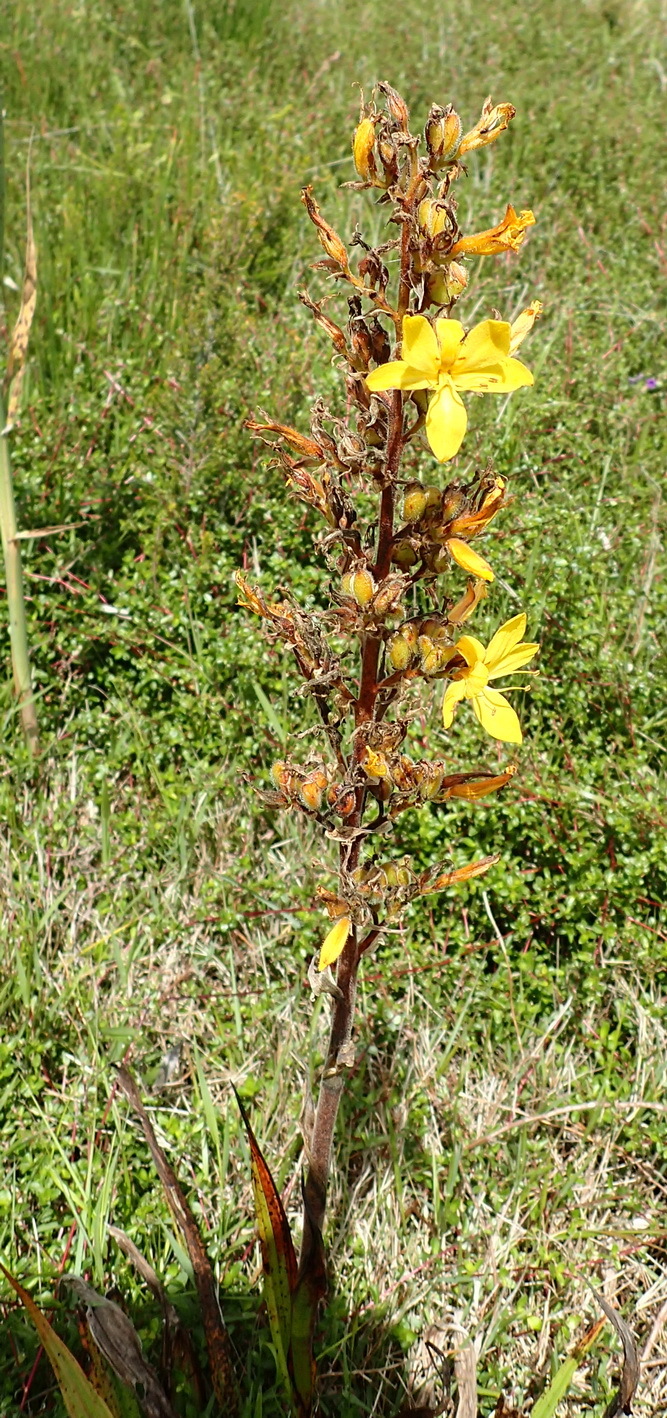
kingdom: Plantae
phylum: Tracheophyta
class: Liliopsida
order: Commelinales
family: Haemodoraceae
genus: Wachendorfia
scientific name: Wachendorfia thyrsiflora
